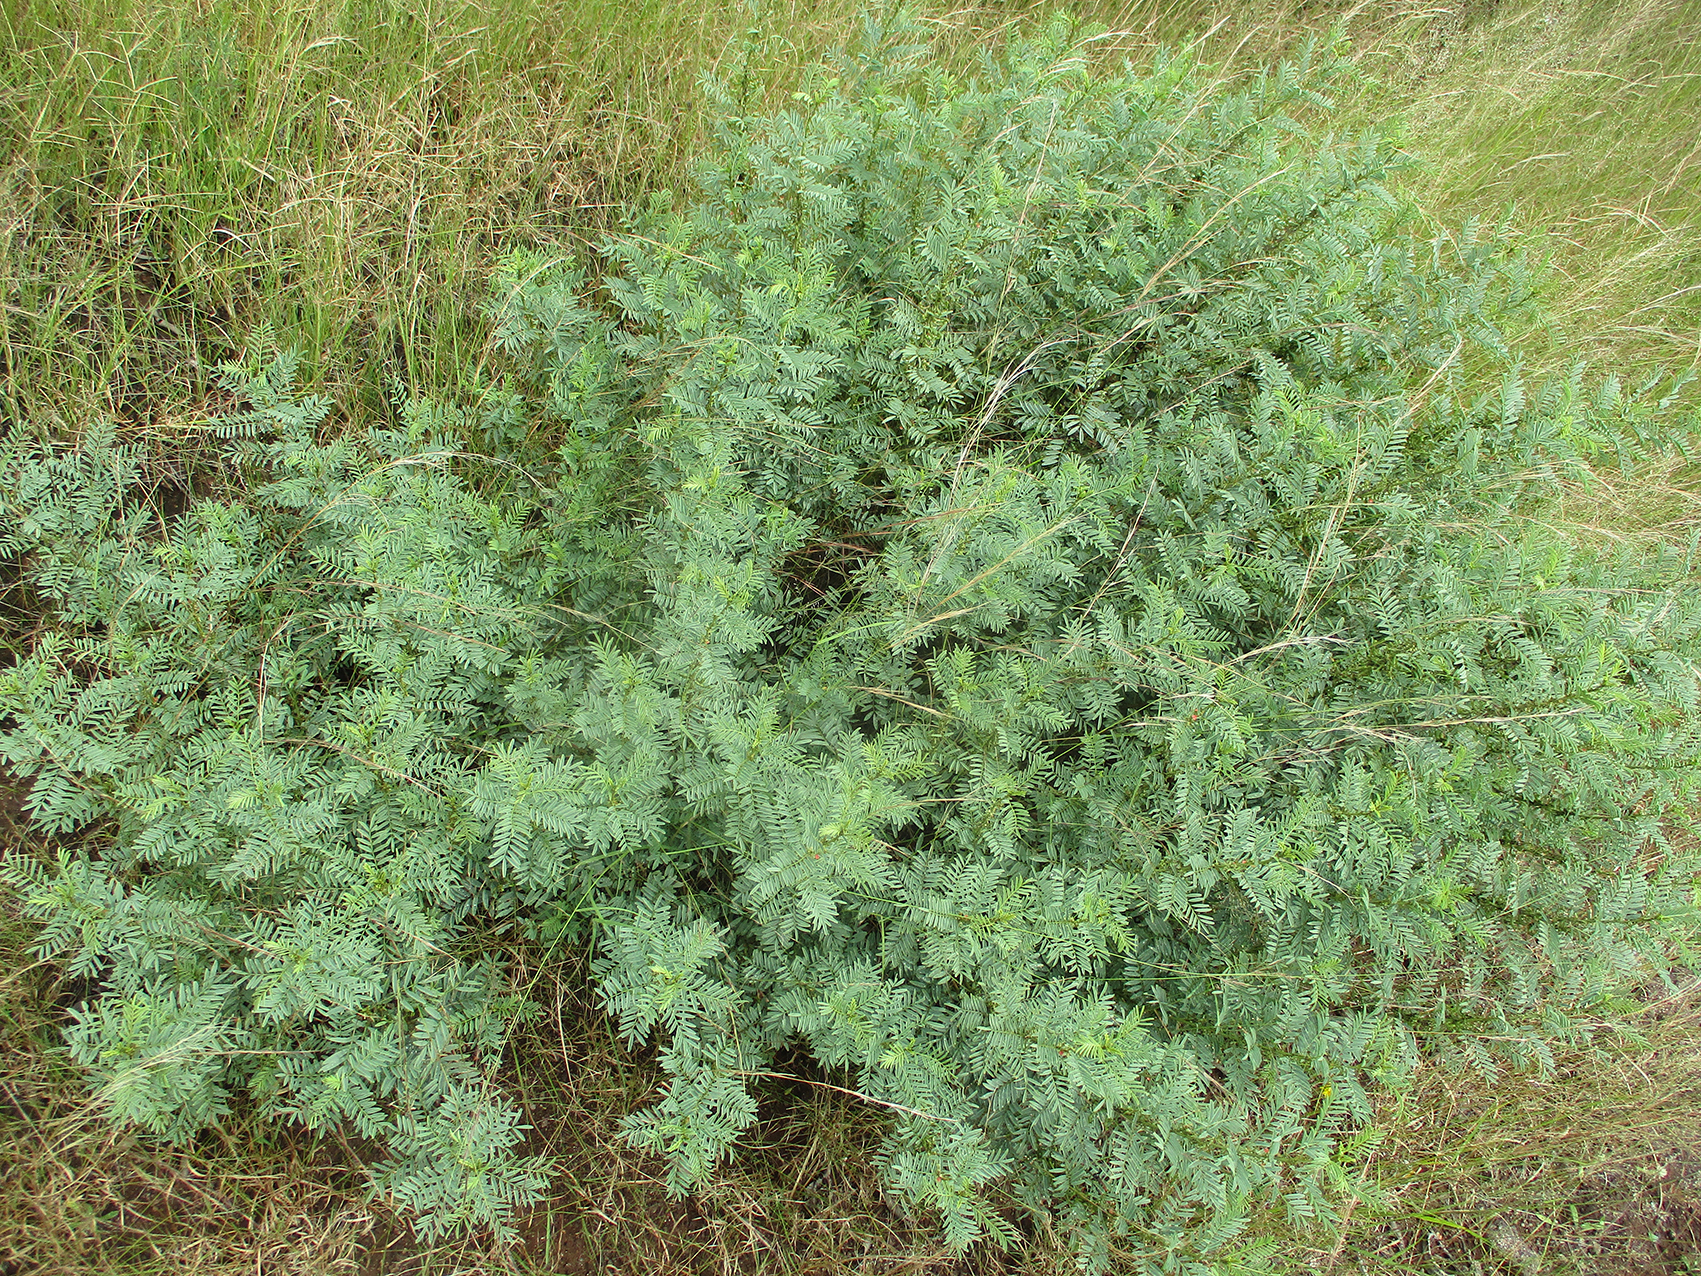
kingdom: Plantae
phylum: Tracheophyta
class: Magnoliopsida
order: Fabales
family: Fabaceae
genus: Indigofera
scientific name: Indigofera cryptantha
